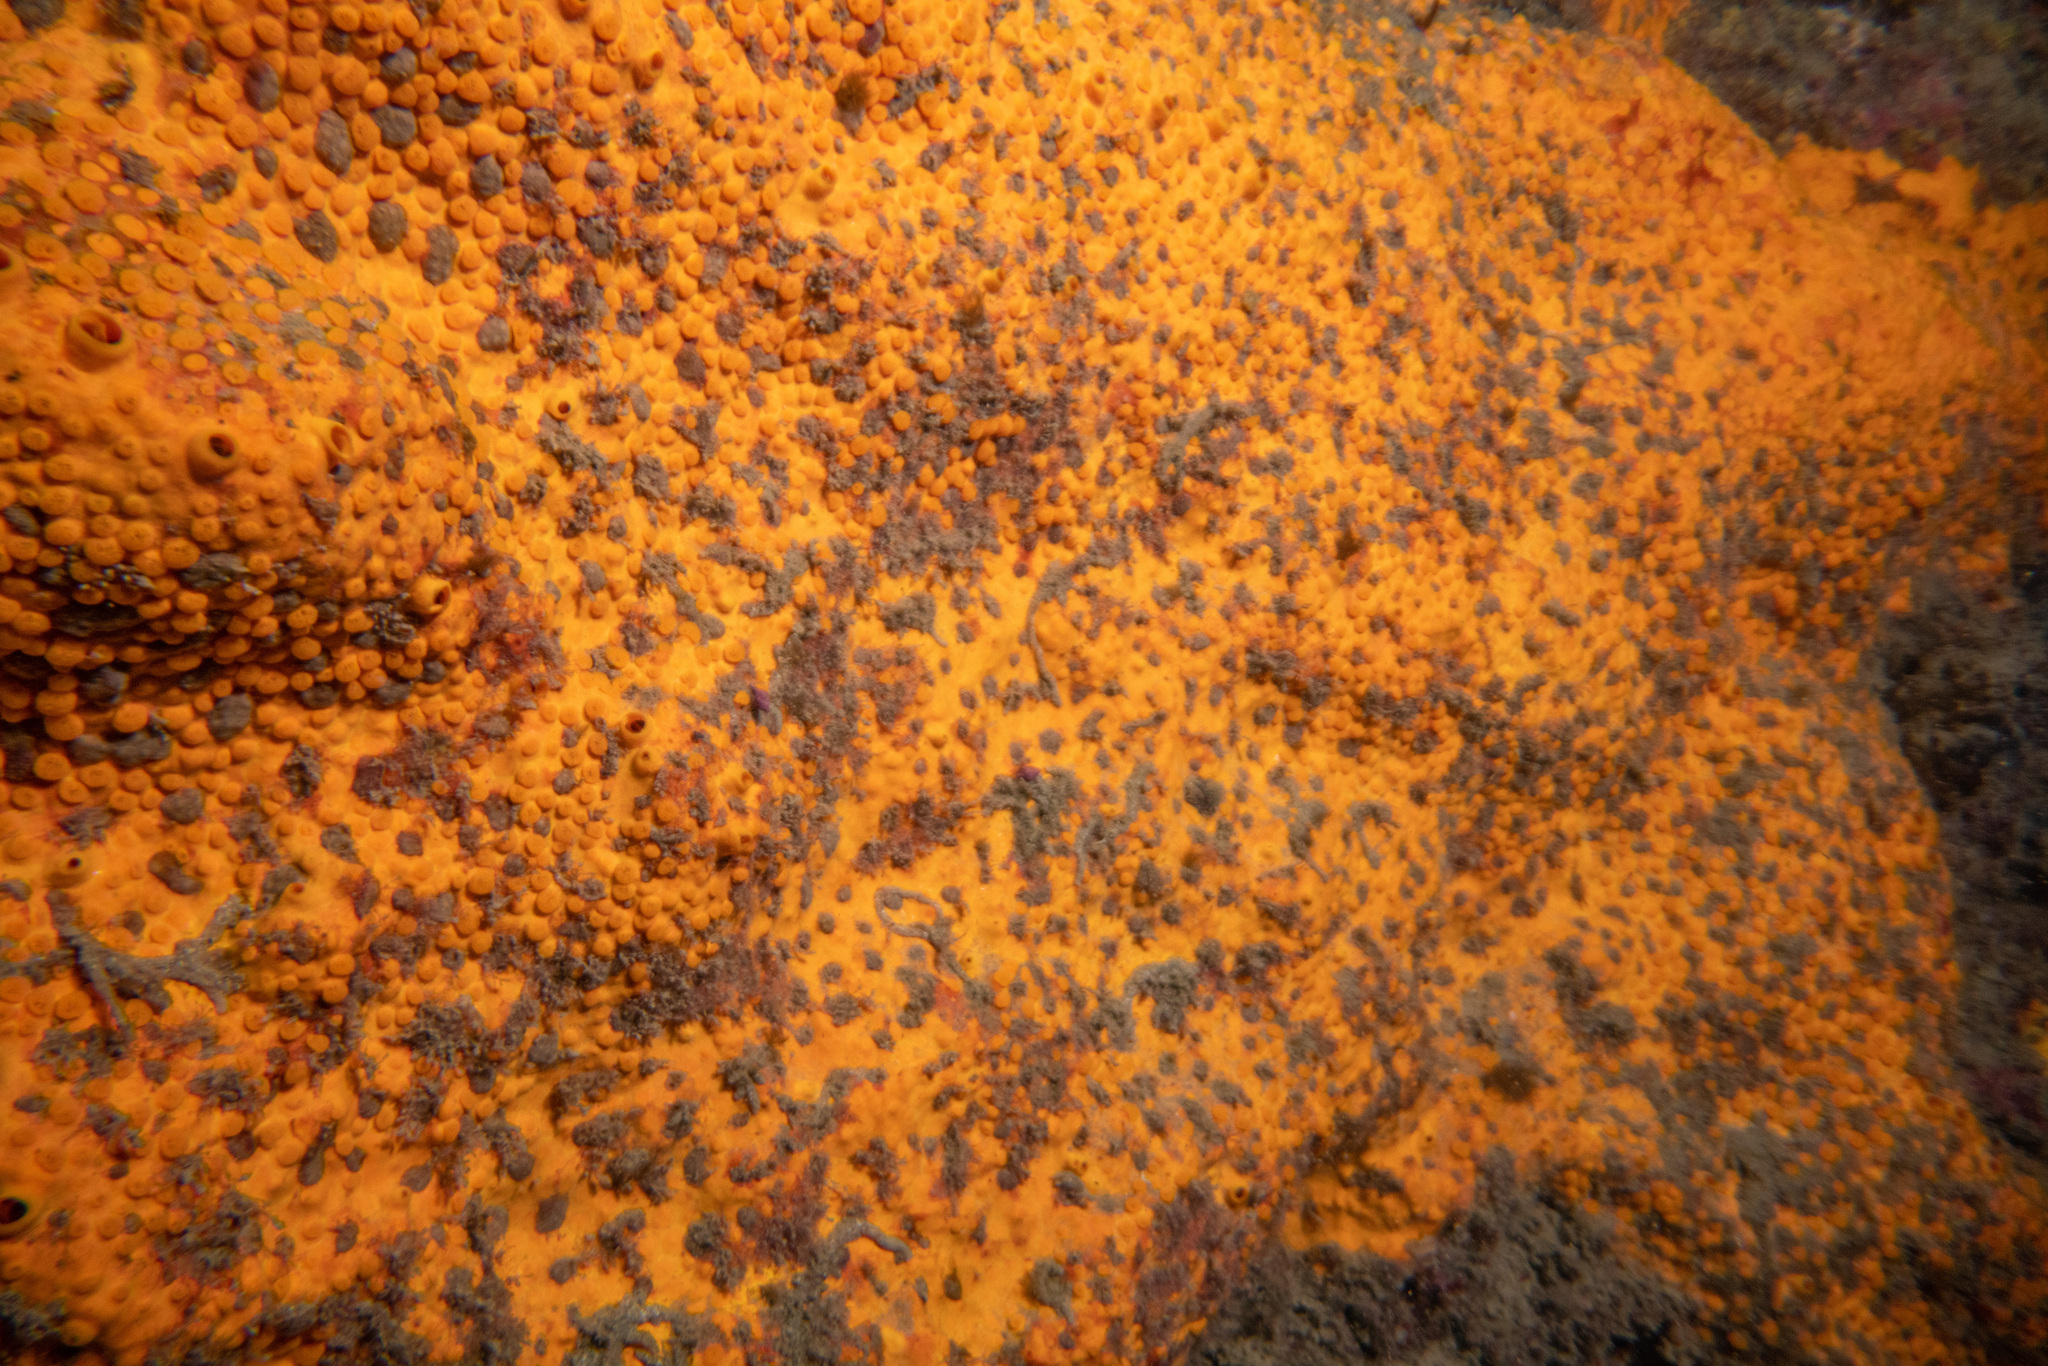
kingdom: Animalia
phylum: Porifera
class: Demospongiae
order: Clionaida
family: Clionaidae
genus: Cliona
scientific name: Cliona celata
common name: Boring sponge
